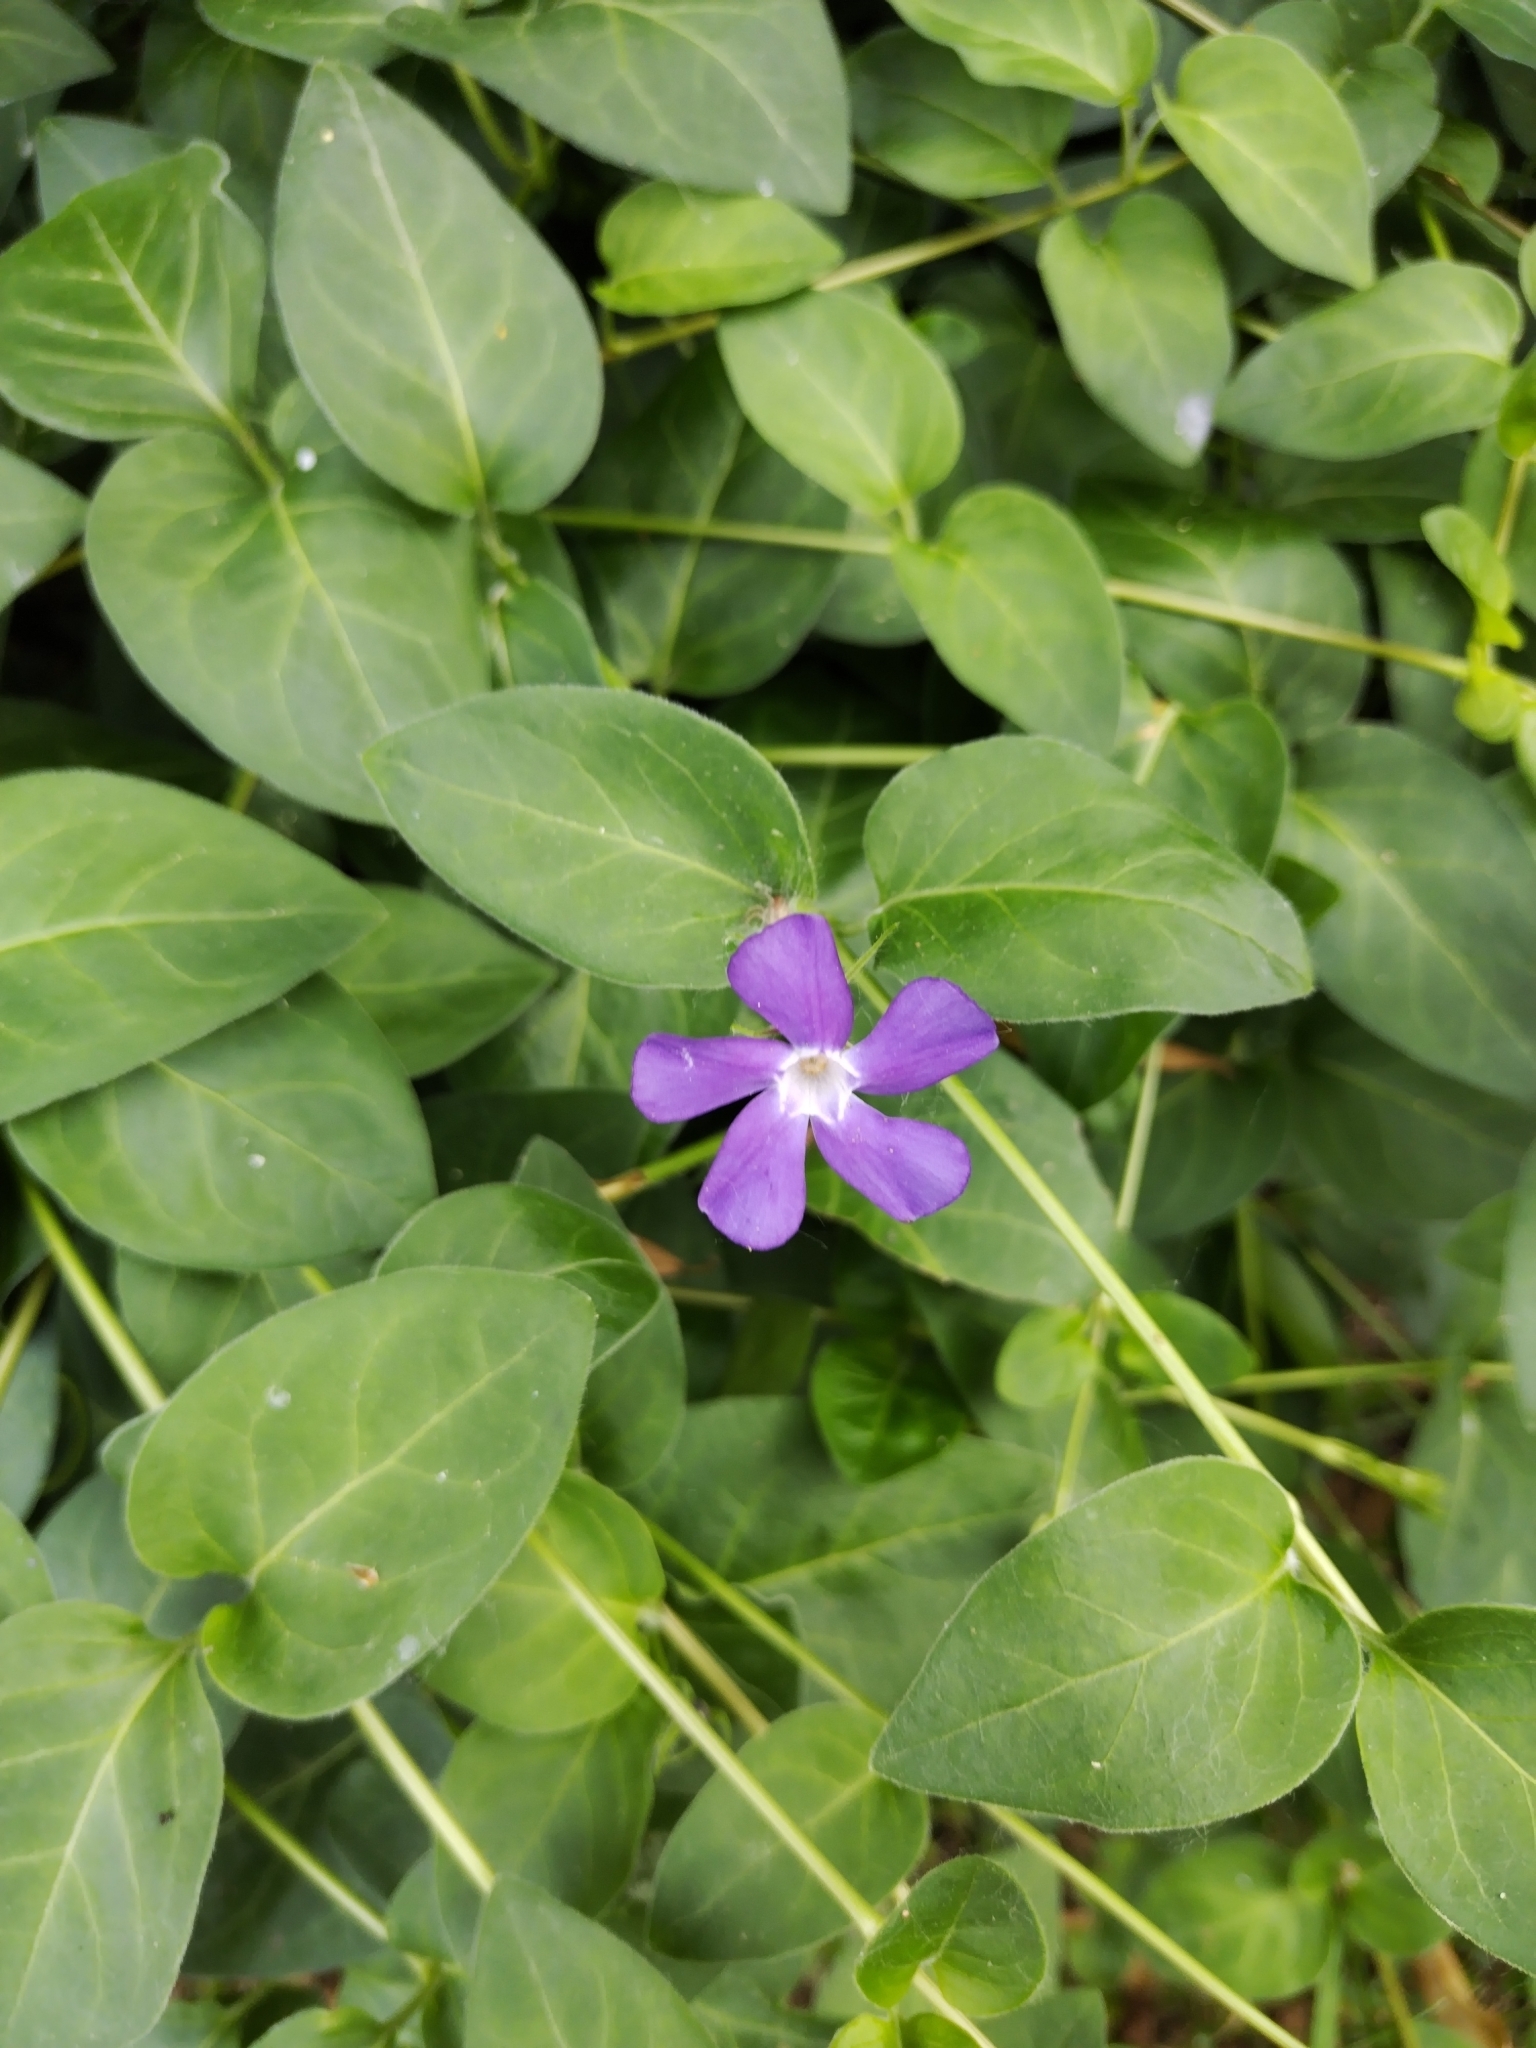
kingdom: Plantae
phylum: Tracheophyta
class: Magnoliopsida
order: Gentianales
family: Apocynaceae
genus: Vinca
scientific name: Vinca major
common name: Greater periwinkle
